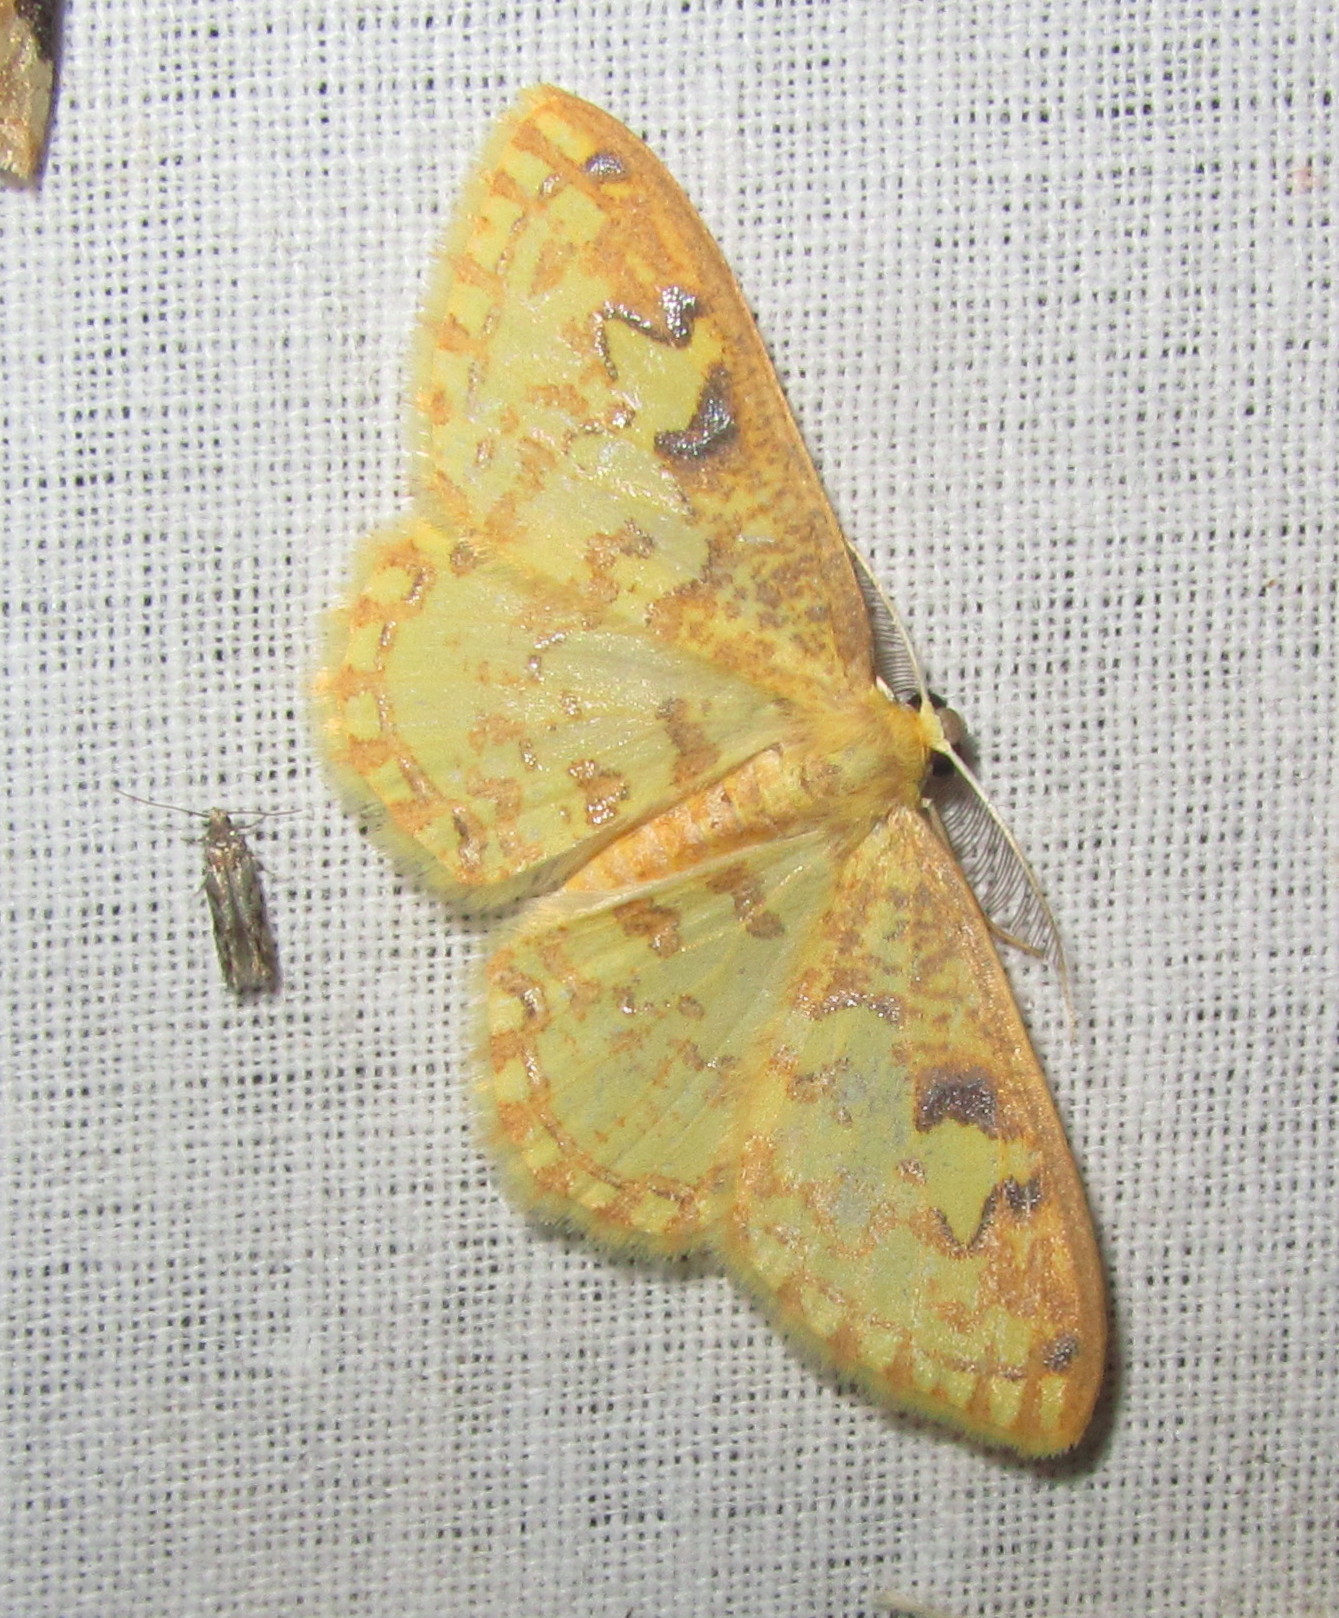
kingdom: Animalia
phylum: Arthropoda
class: Insecta
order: Lepidoptera
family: Geometridae
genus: Archiplutodes
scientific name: Archiplutodes prasina
